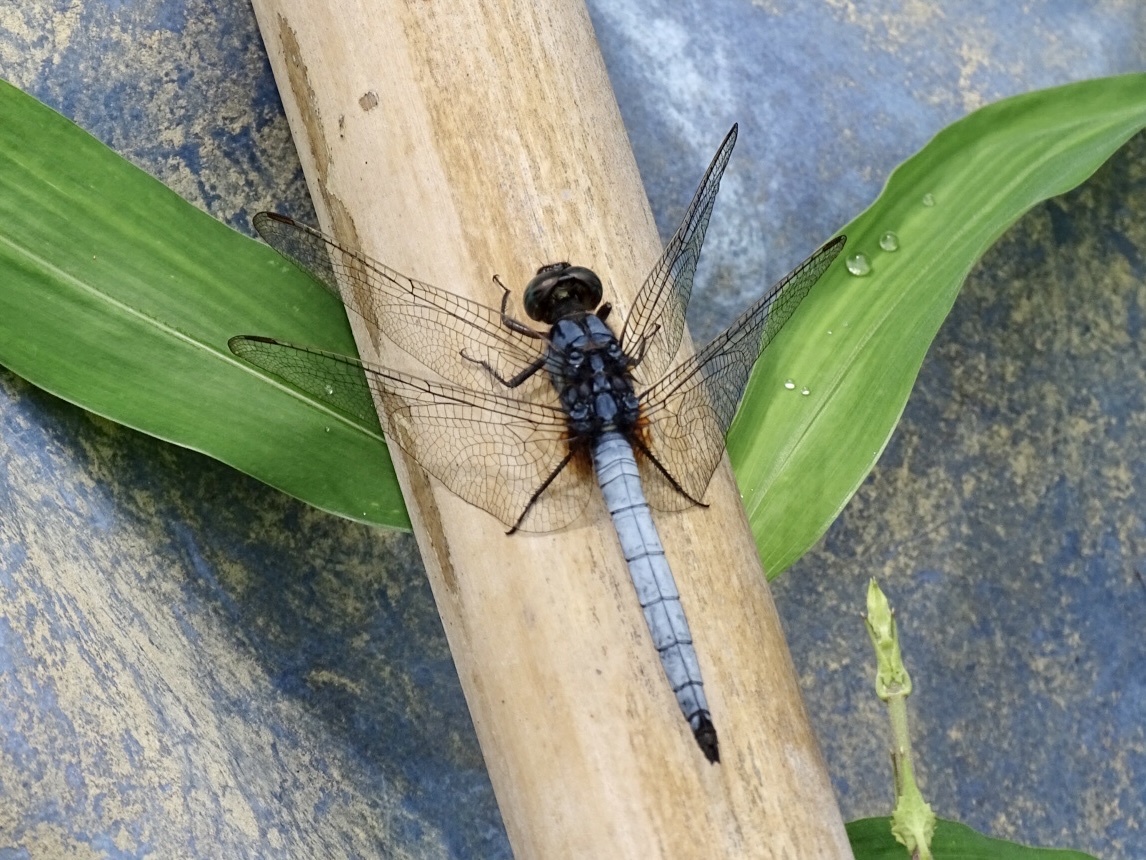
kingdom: Animalia
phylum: Arthropoda
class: Insecta
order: Odonata
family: Libellulidae
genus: Orthetrum
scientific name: Orthetrum glaucum
